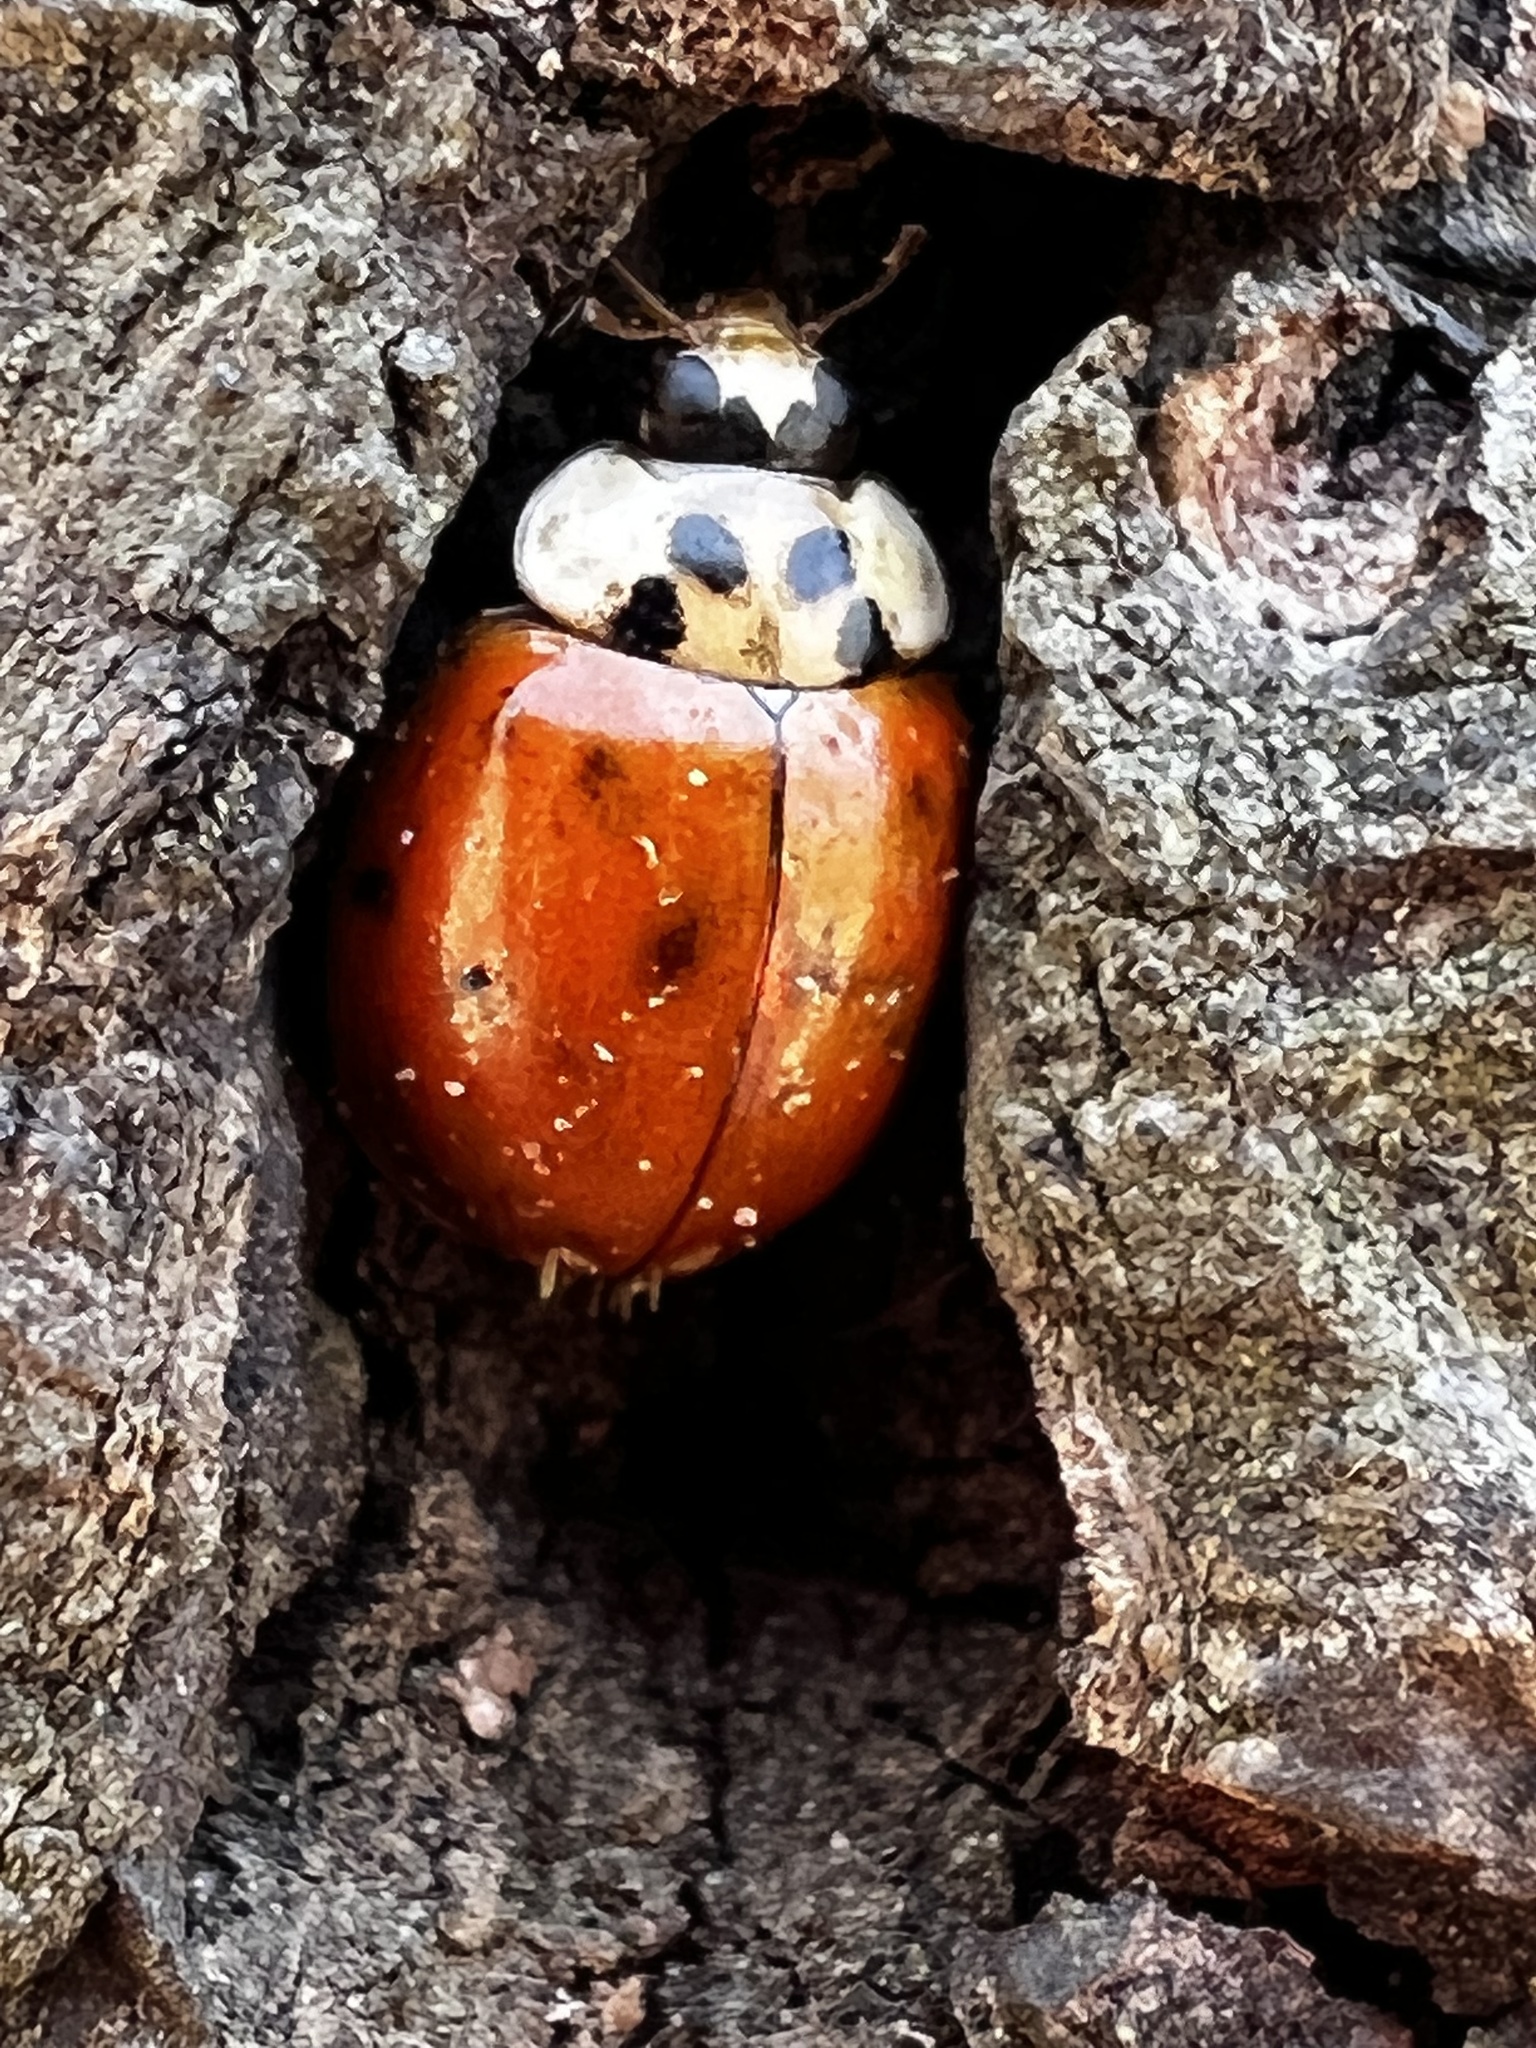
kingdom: Fungi
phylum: Ascomycota
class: Laboulbeniomycetes
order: Laboulbeniales
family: Laboulbeniaceae
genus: Hesperomyces
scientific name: Hesperomyces harmoniae
